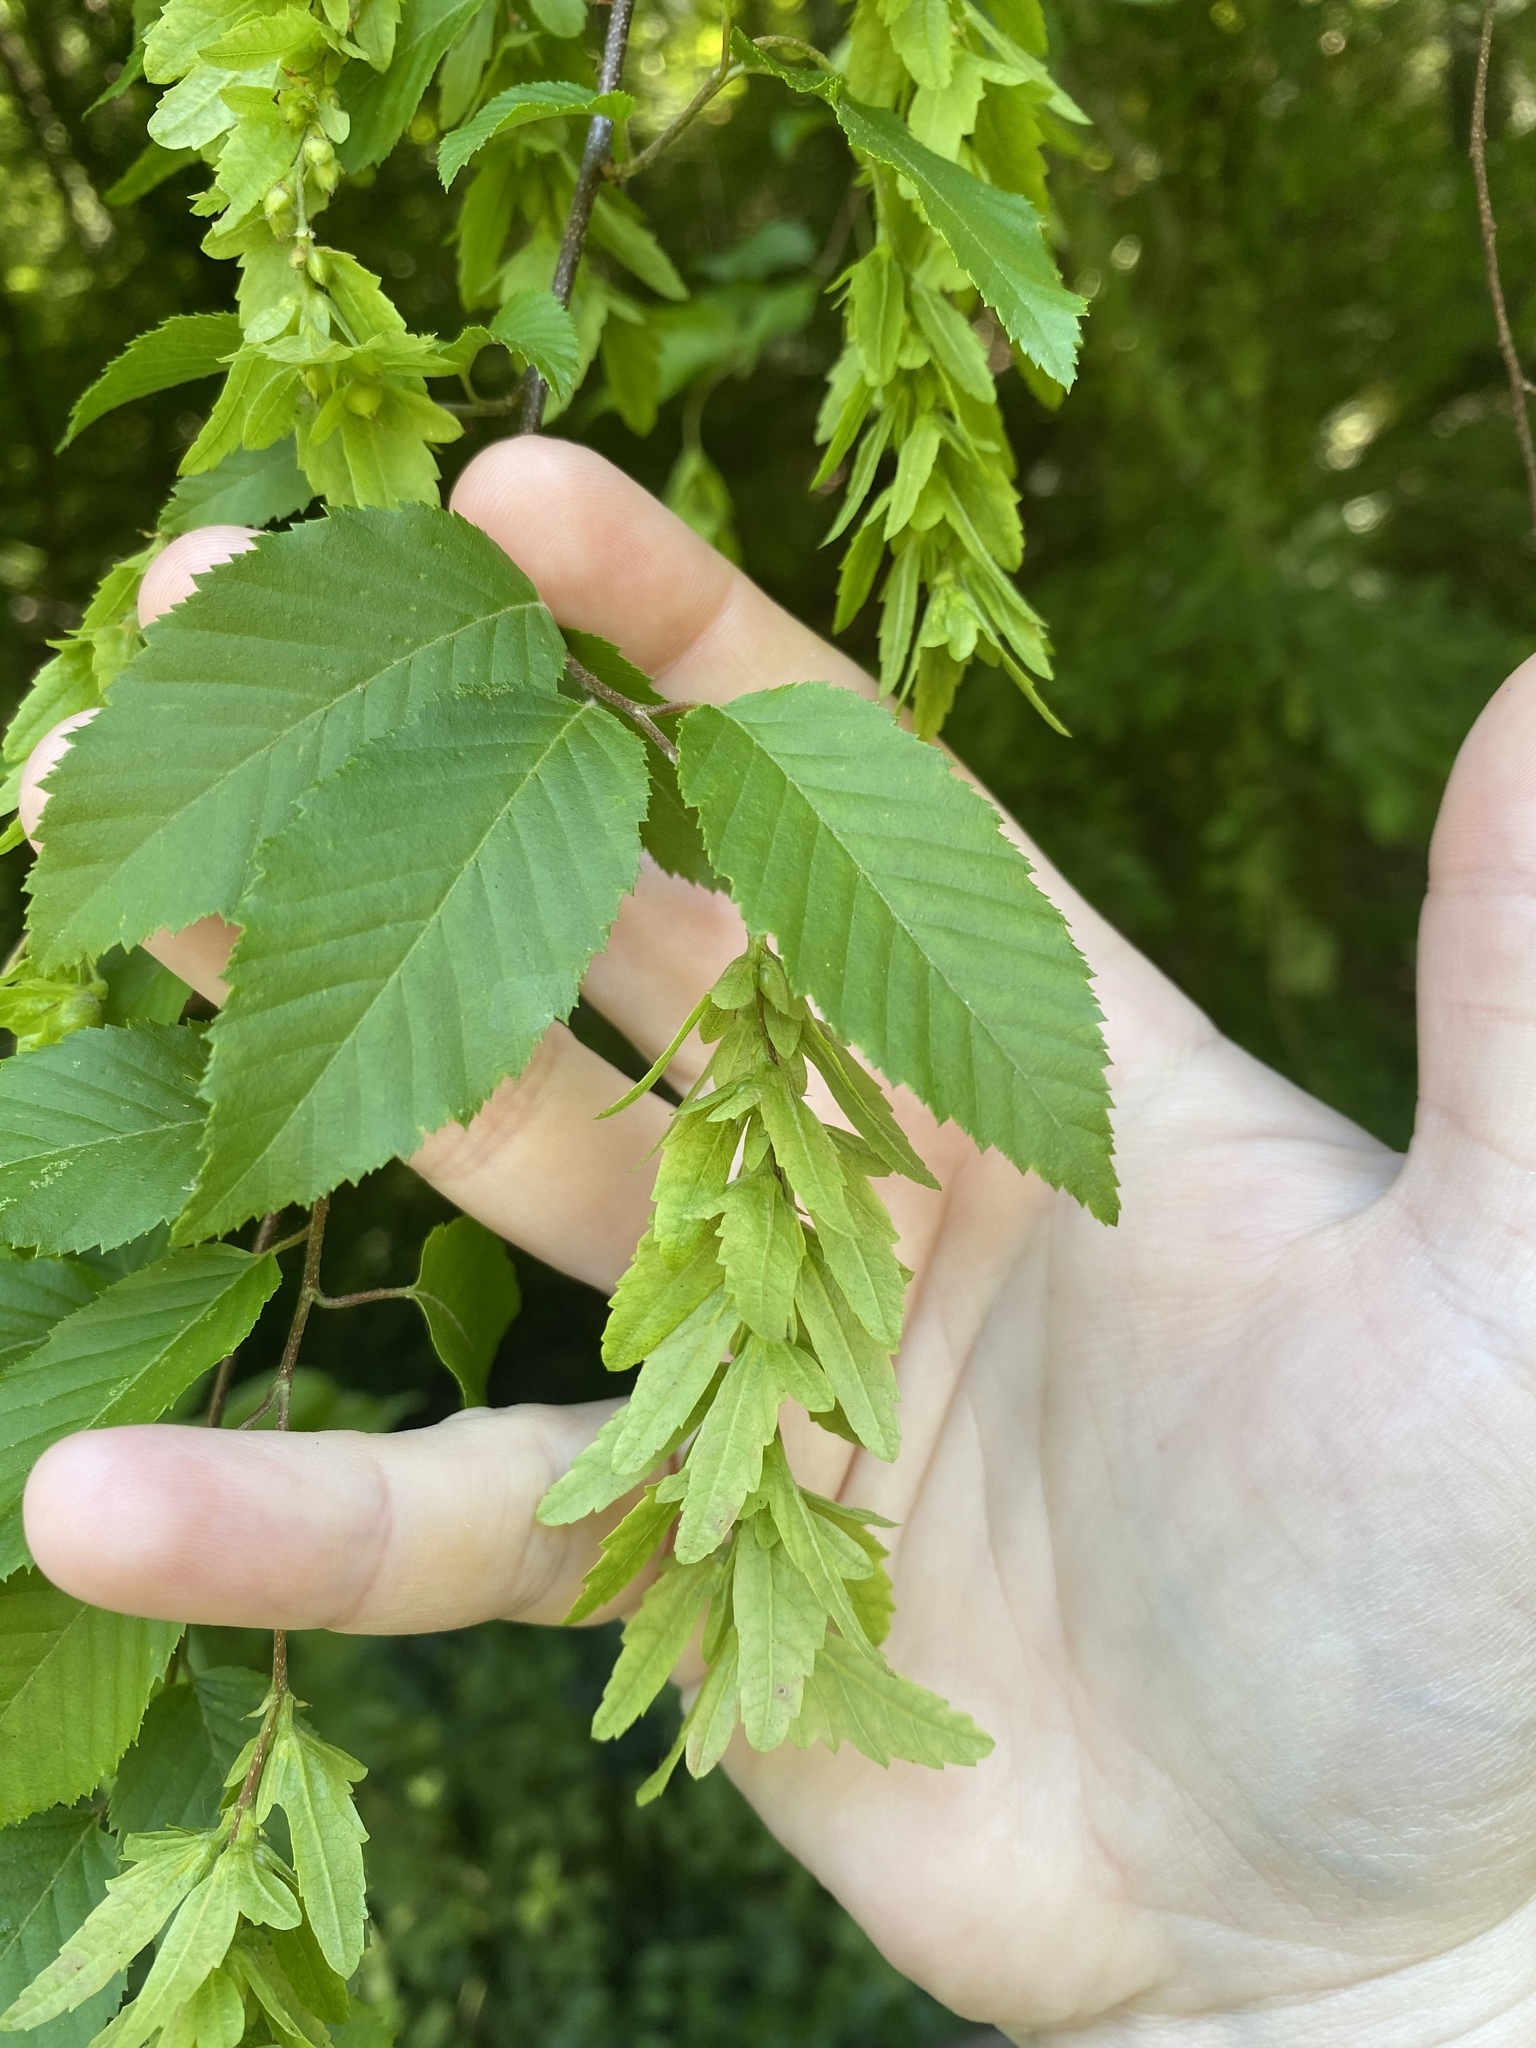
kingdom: Plantae
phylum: Tracheophyta
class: Magnoliopsida
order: Fagales
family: Betulaceae
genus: Carpinus
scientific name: Carpinus caroliniana
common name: American hornbeam
